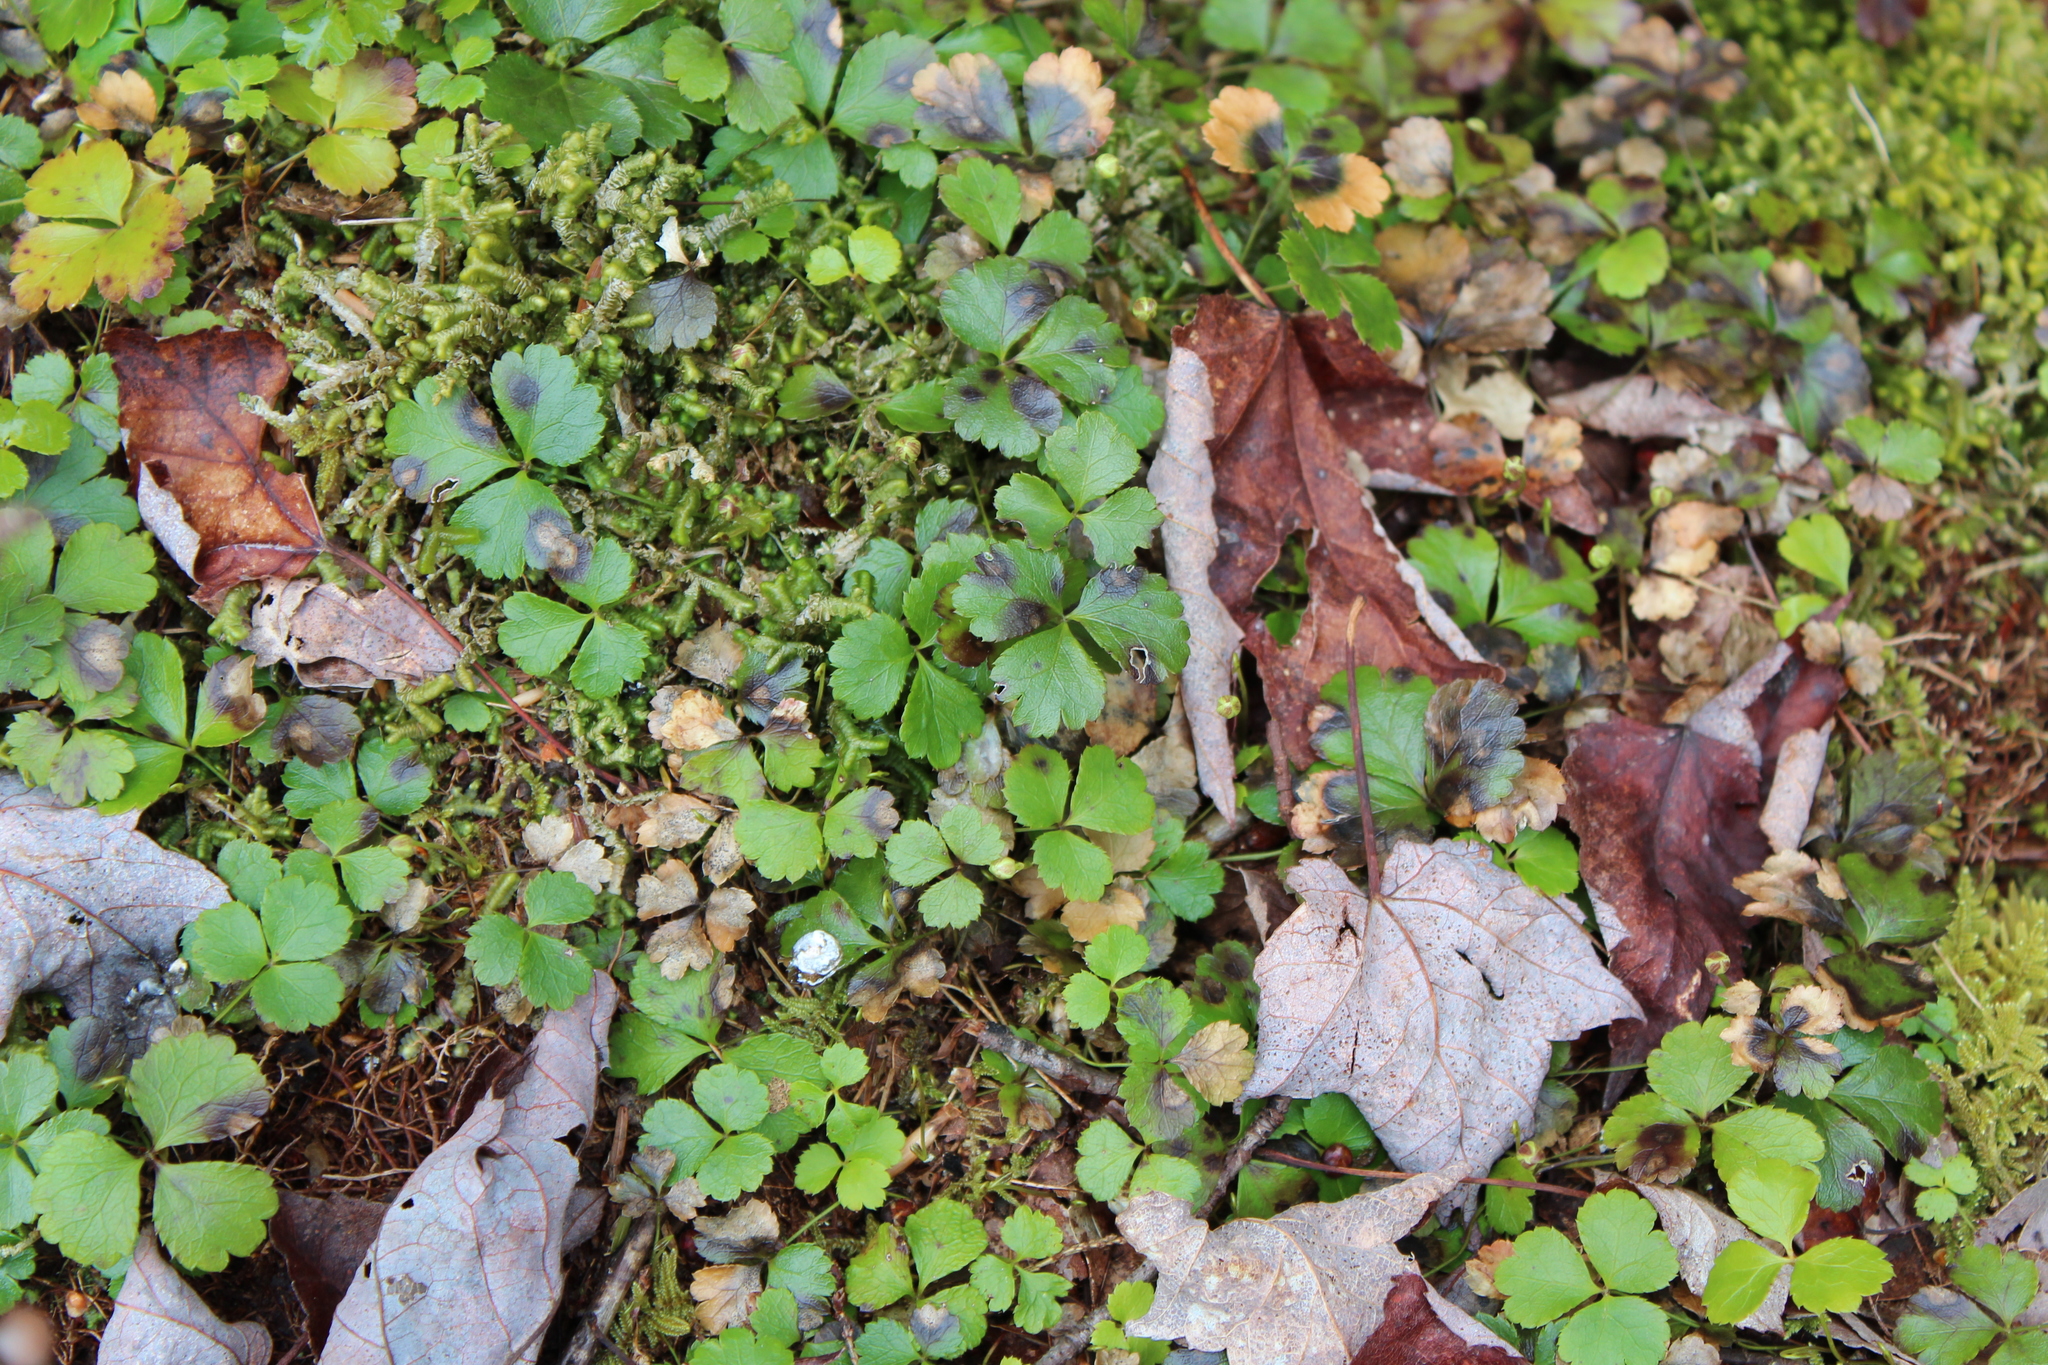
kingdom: Plantae
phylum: Tracheophyta
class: Magnoliopsida
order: Ranunculales
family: Ranunculaceae
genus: Coptis
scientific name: Coptis trifolia
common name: Canker-root
